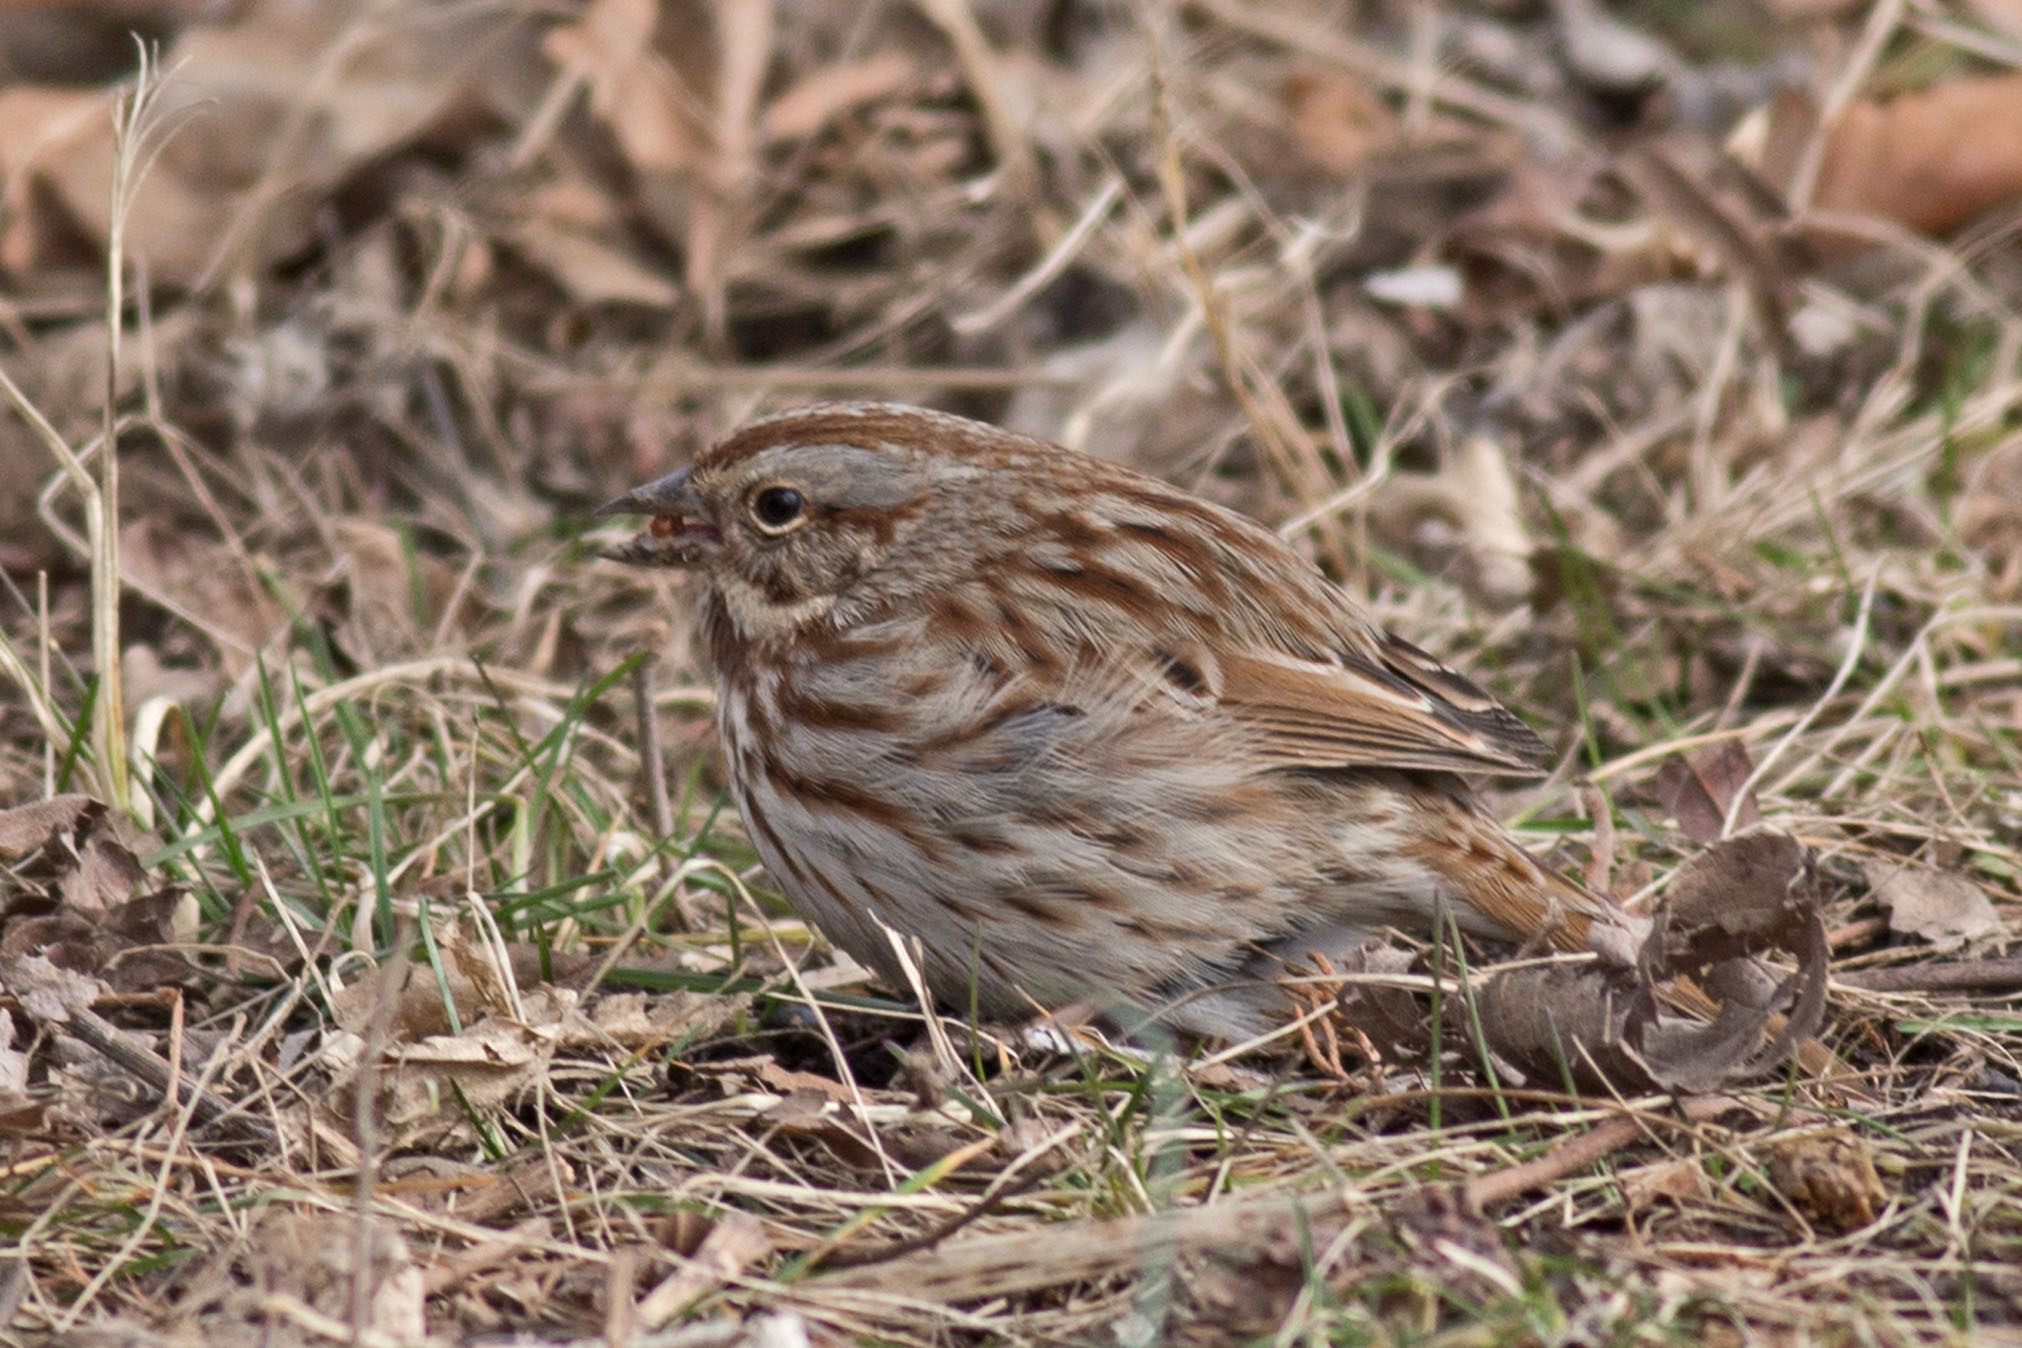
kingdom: Animalia
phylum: Chordata
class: Aves
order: Passeriformes
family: Passerellidae
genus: Melospiza
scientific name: Melospiza melodia
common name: Song sparrow
